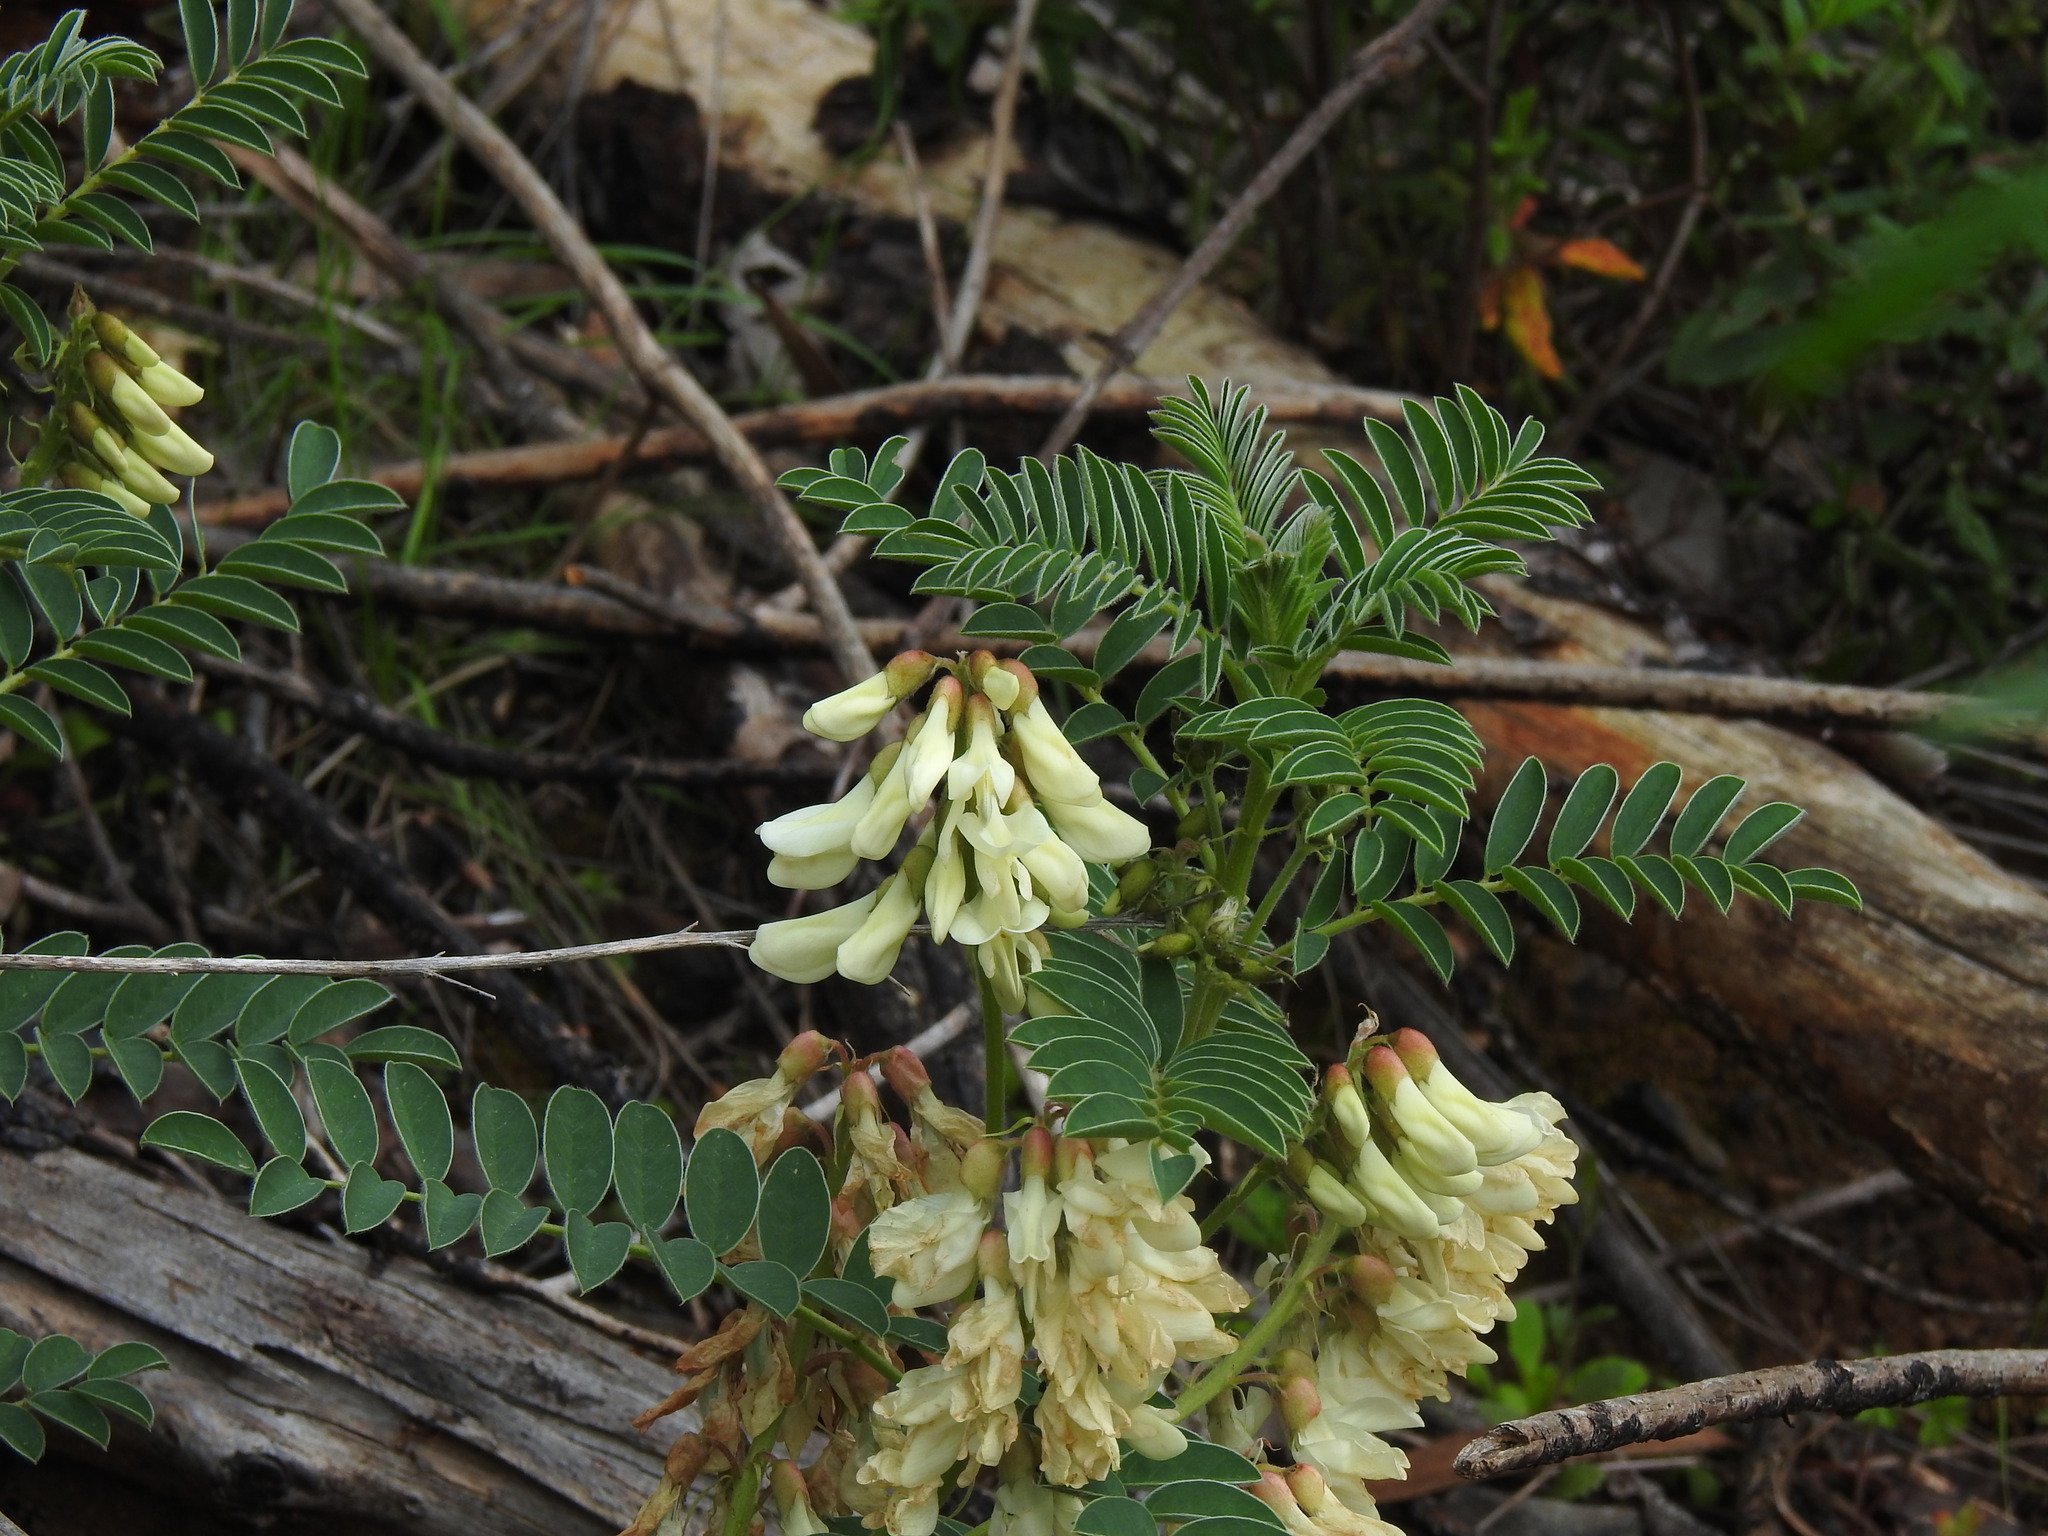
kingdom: Plantae
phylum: Tracheophyta
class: Magnoliopsida
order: Fabales
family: Fabaceae
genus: Erophaca
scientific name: Erophaca baetica
